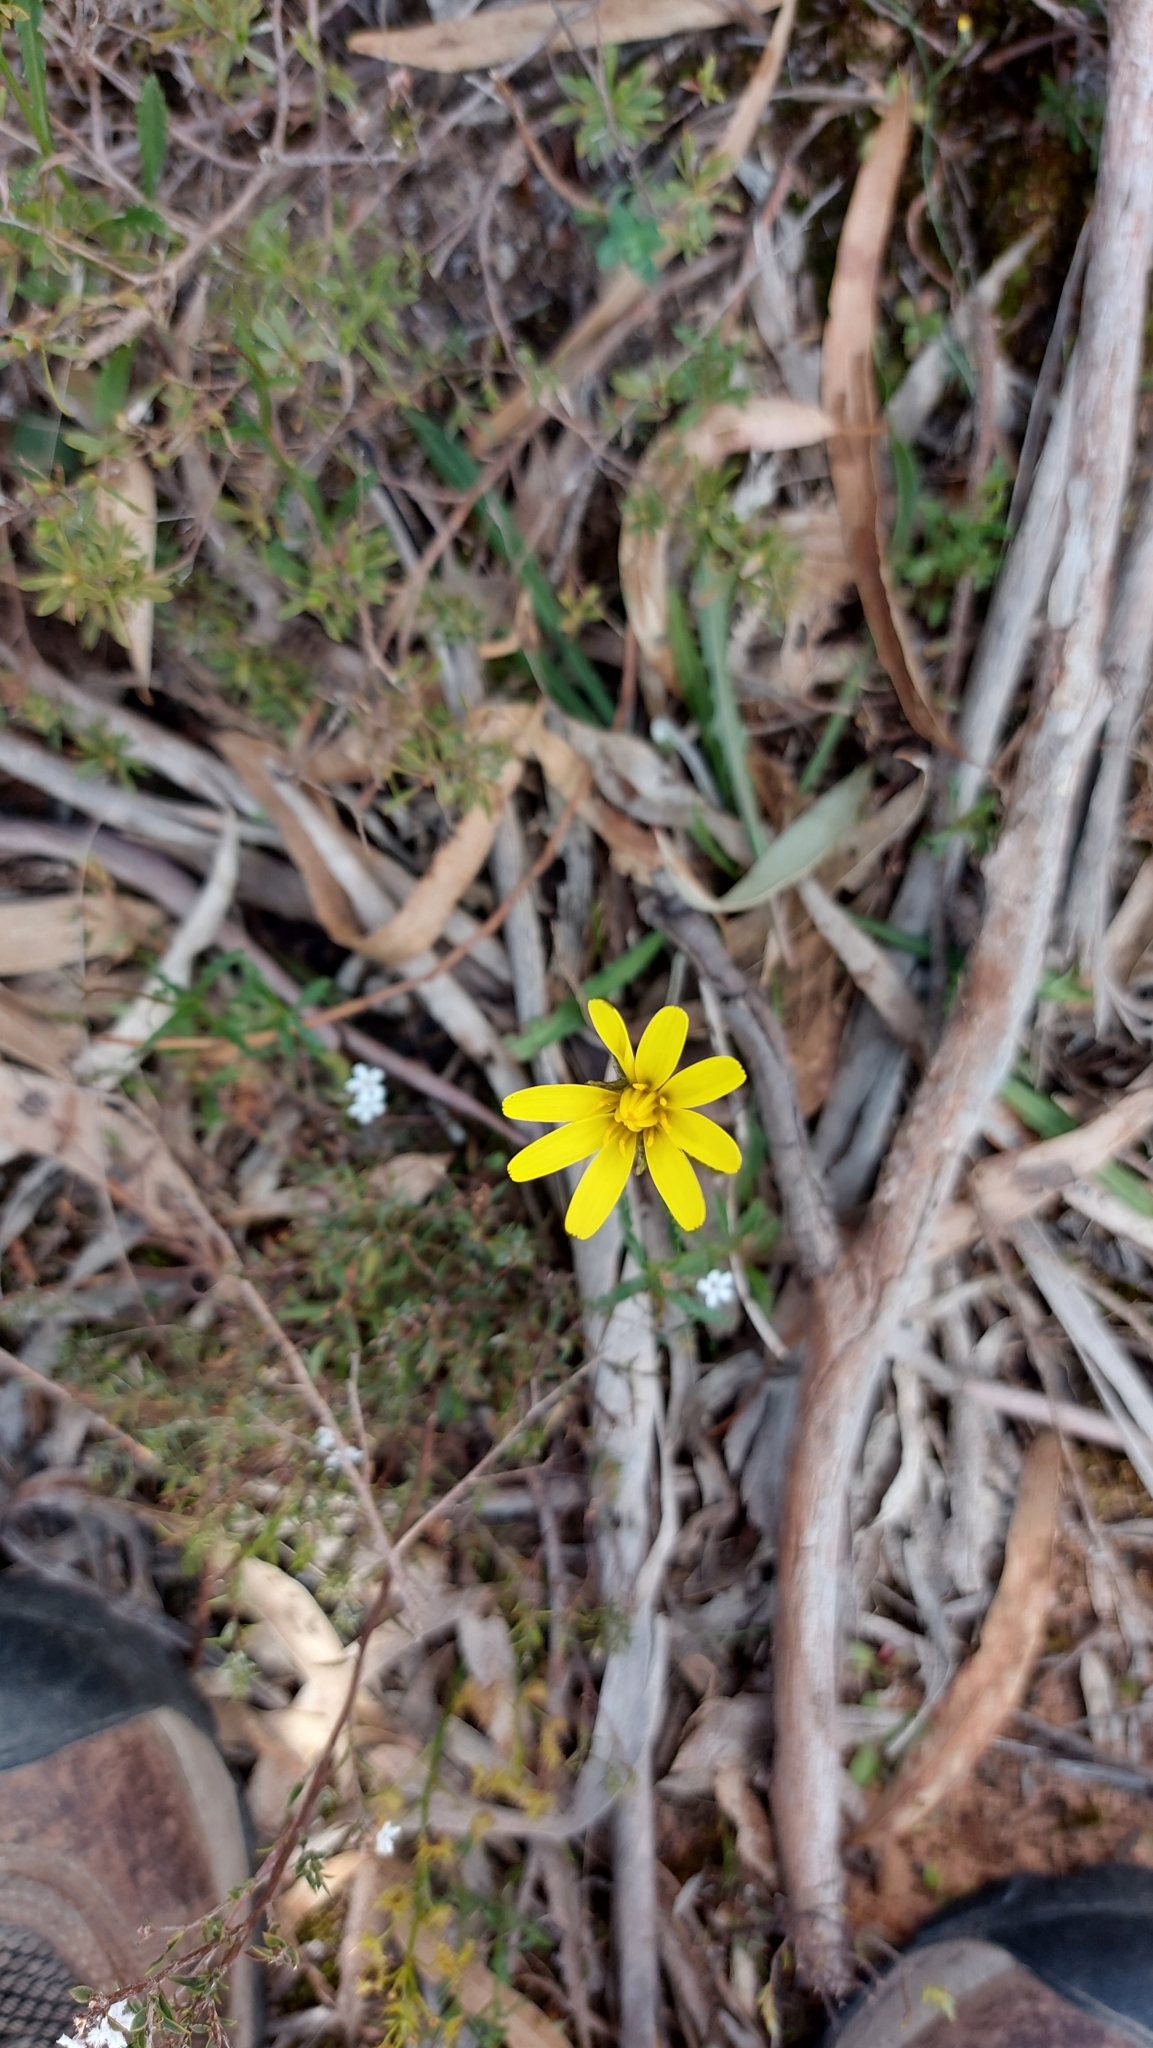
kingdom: Plantae
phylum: Tracheophyta
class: Magnoliopsida
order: Asterales
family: Asteraceae
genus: Microseris
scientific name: Microseris lanceolata
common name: Yam daisy
